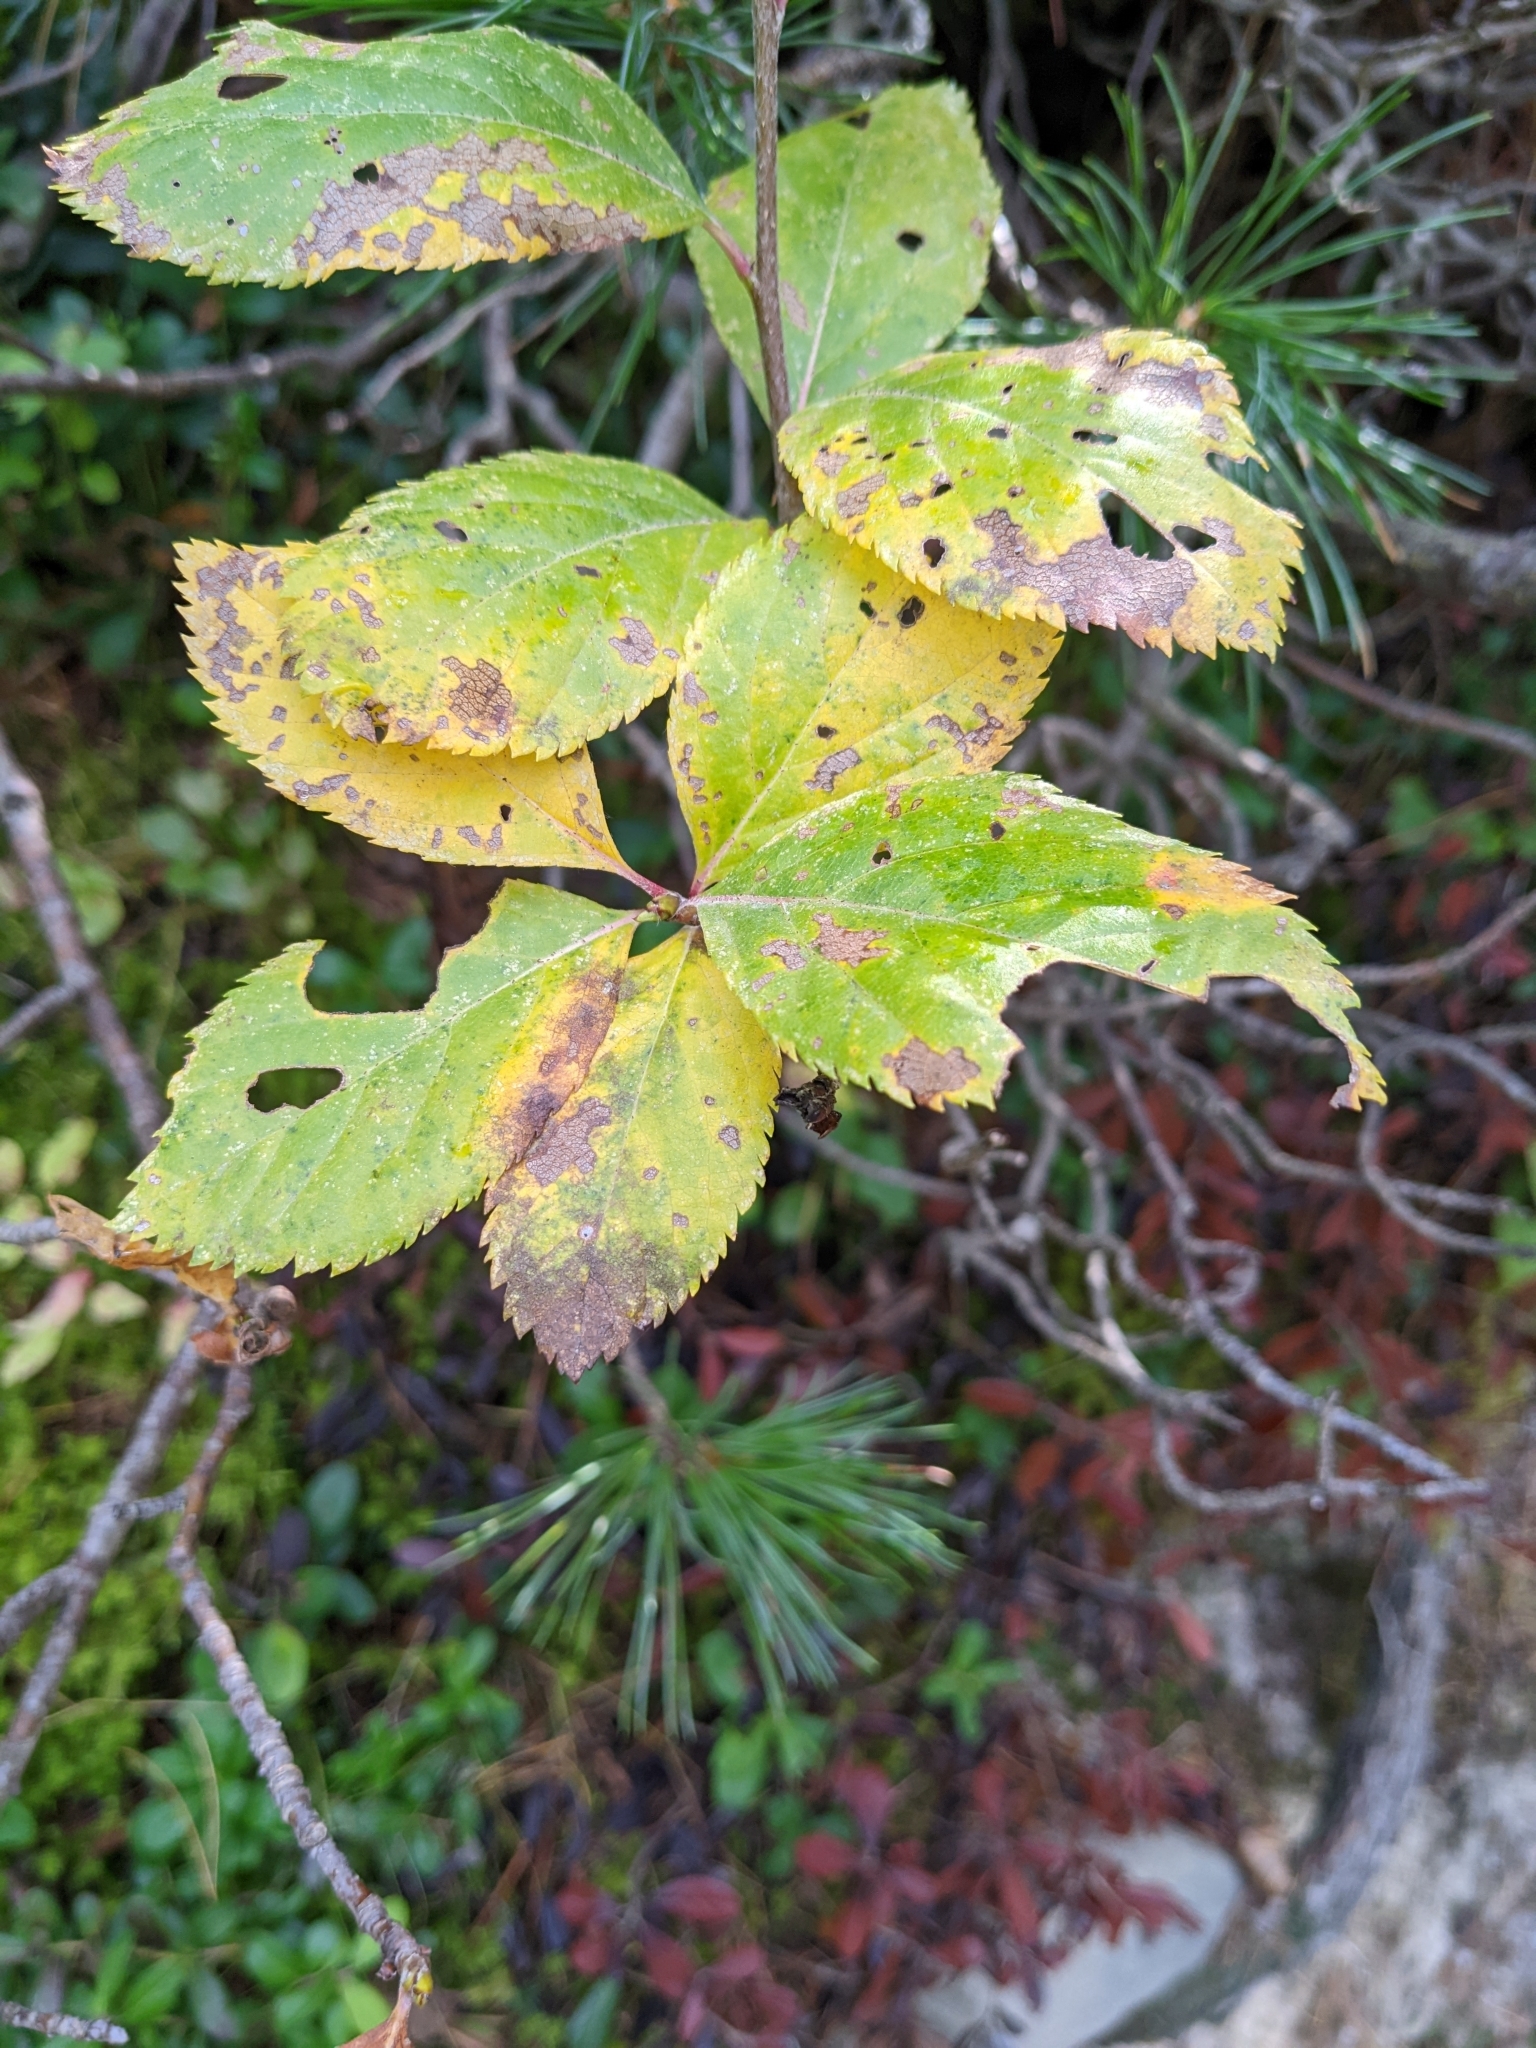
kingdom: Plantae
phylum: Tracheophyta
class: Magnoliopsida
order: Rosales
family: Rosaceae
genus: Chamaemespilus
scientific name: Chamaemespilus alpina
